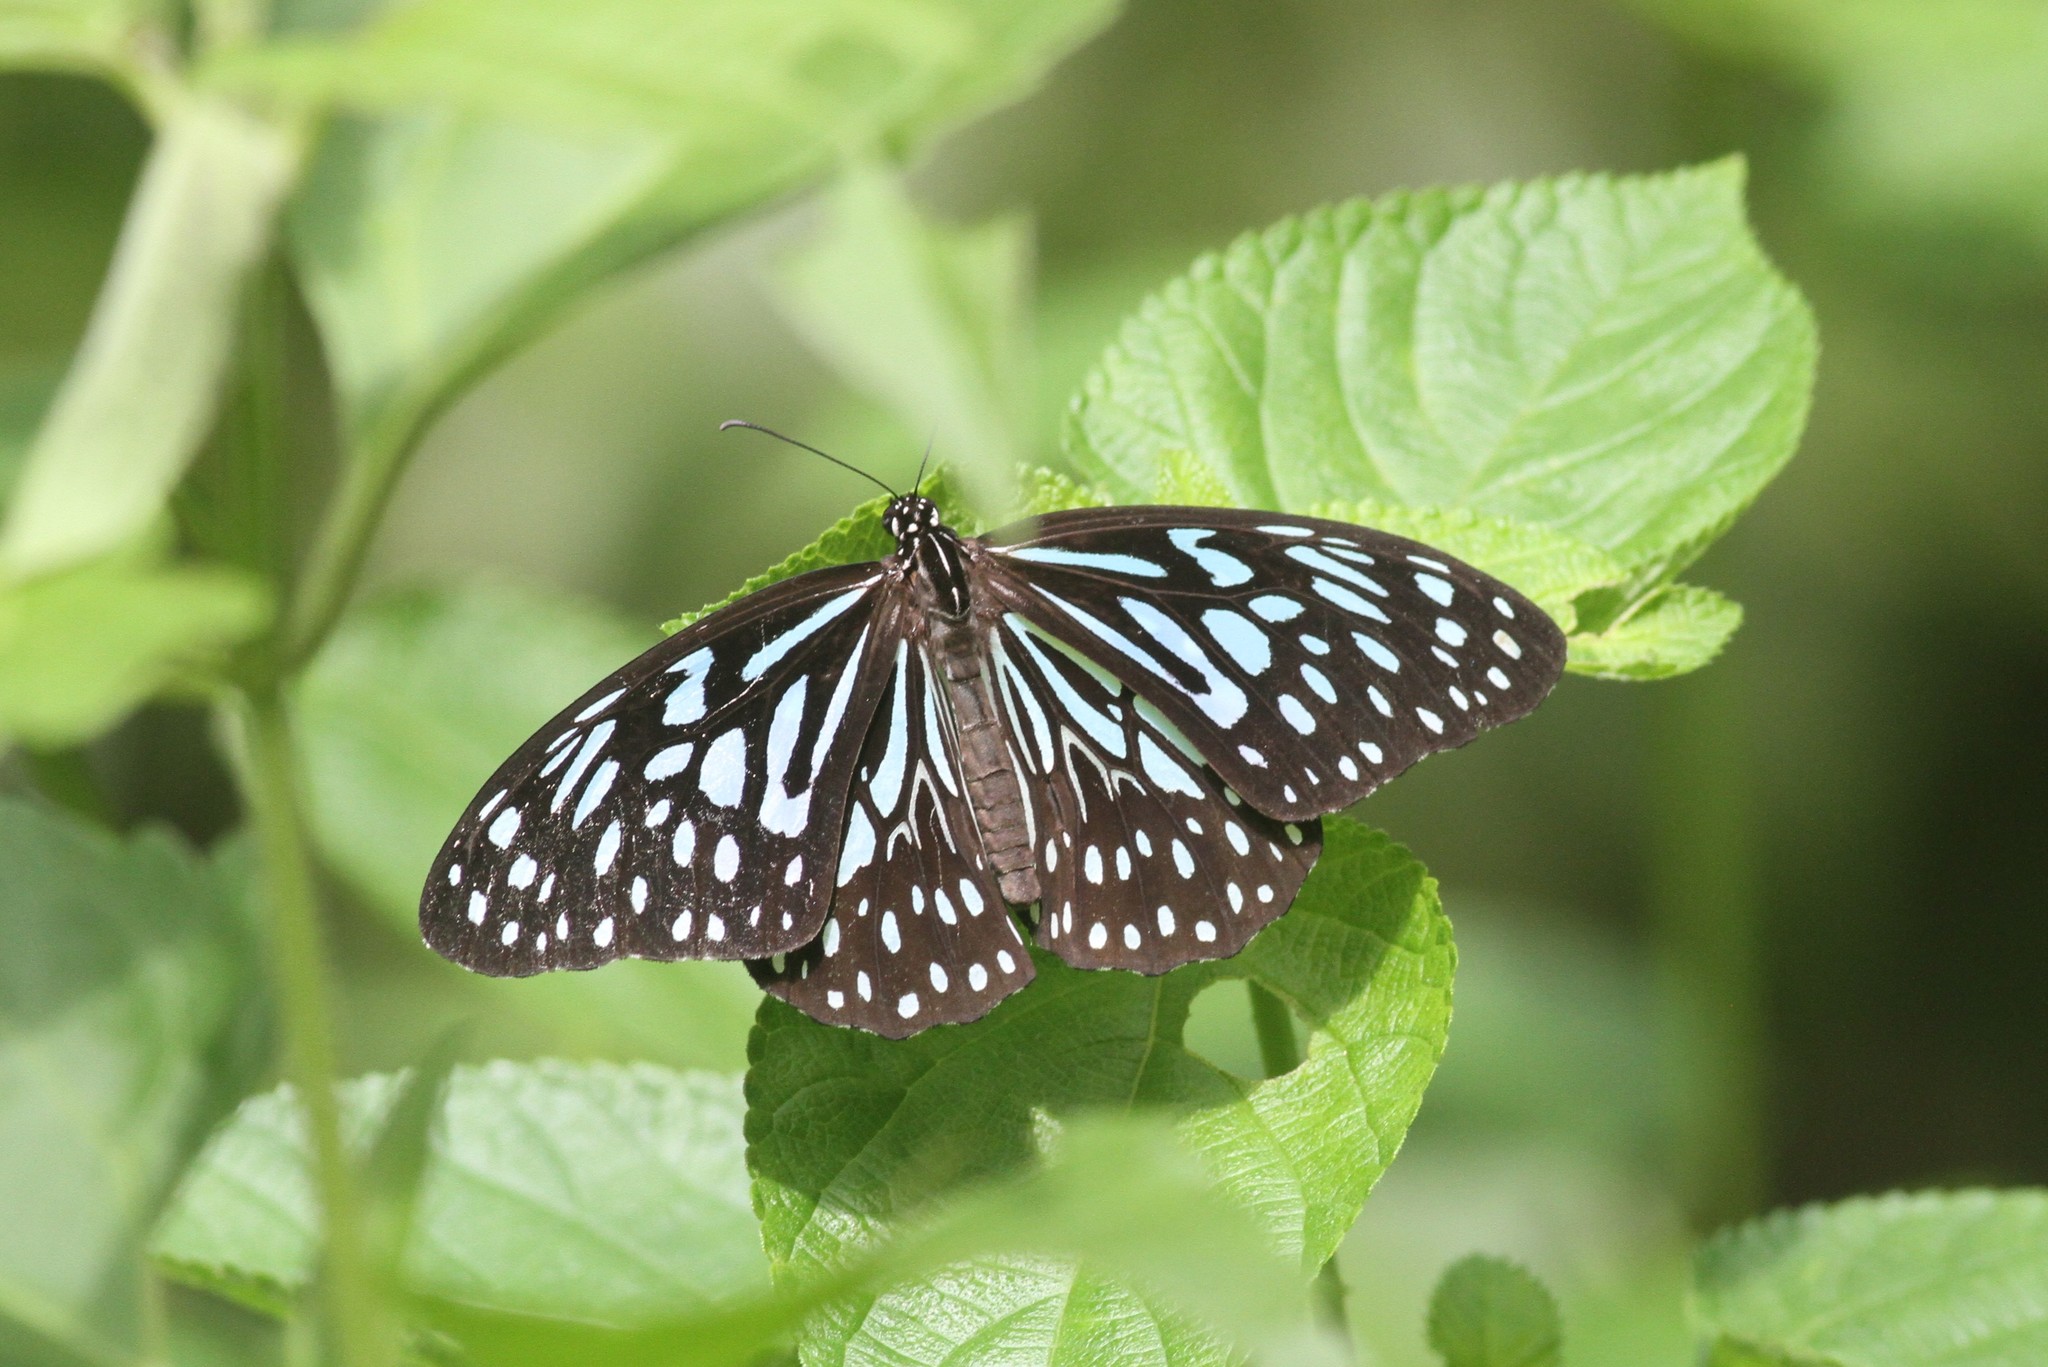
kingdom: Animalia
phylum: Arthropoda
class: Insecta
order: Lepidoptera
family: Nymphalidae
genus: Tirumala
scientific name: Tirumala septentrionis
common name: Dark blue tiger butterfly
